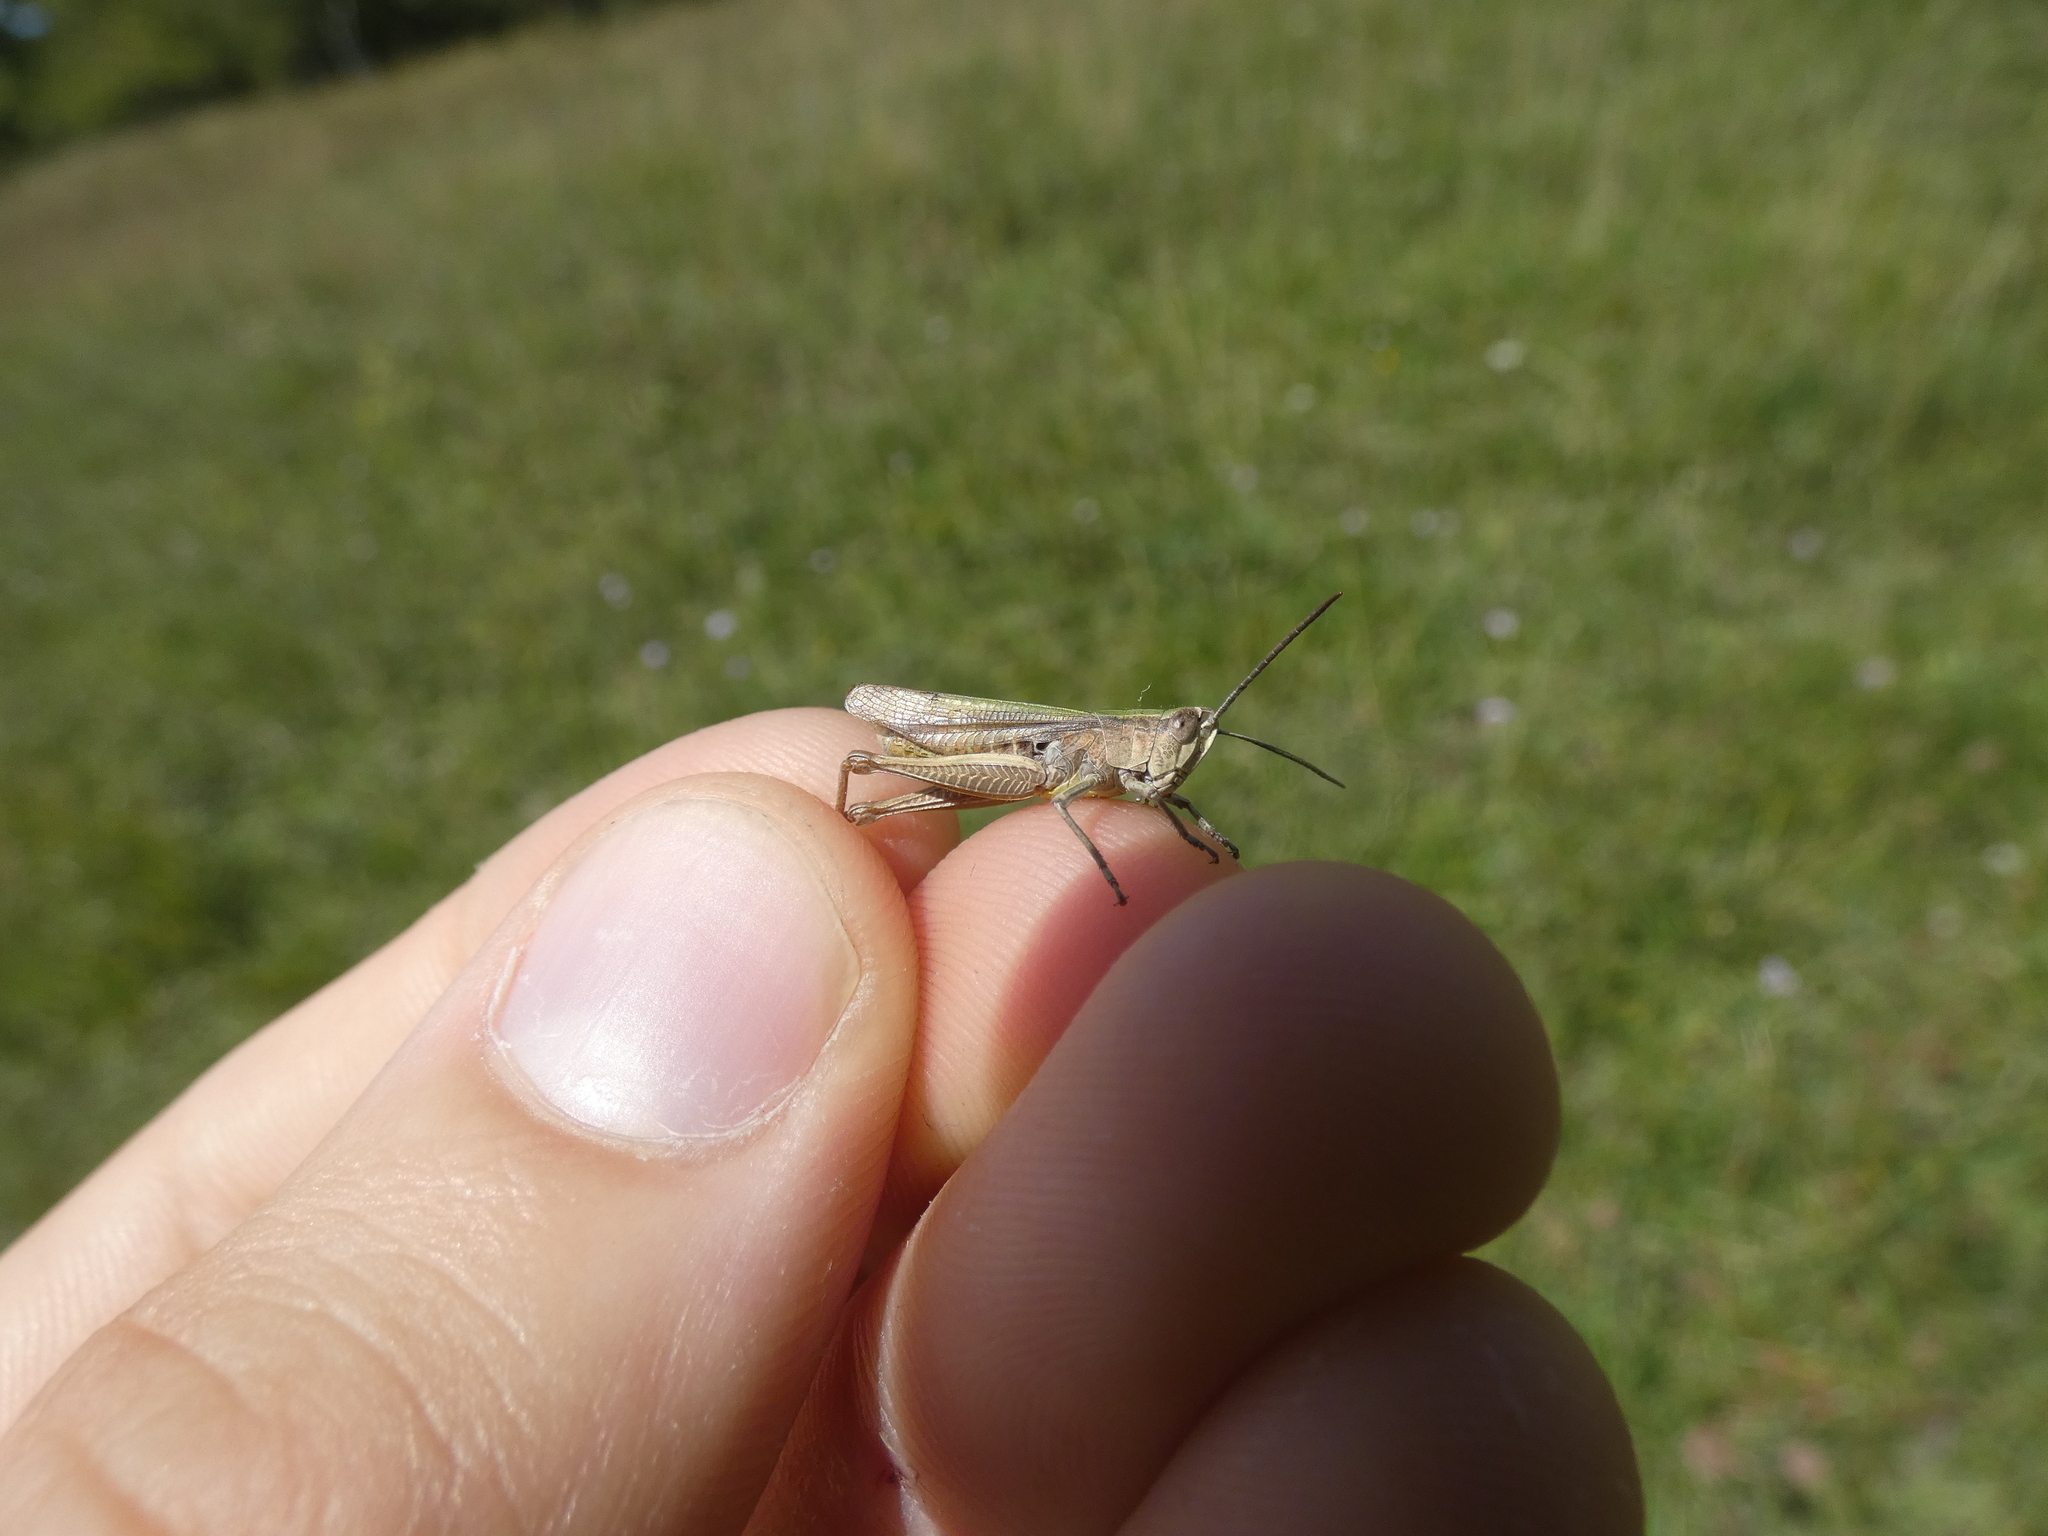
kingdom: Animalia
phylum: Arthropoda
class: Insecta
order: Orthoptera
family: Acrididae
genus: Chorthippus
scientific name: Chorthippus dorsatus
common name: Steppe grasshopper
